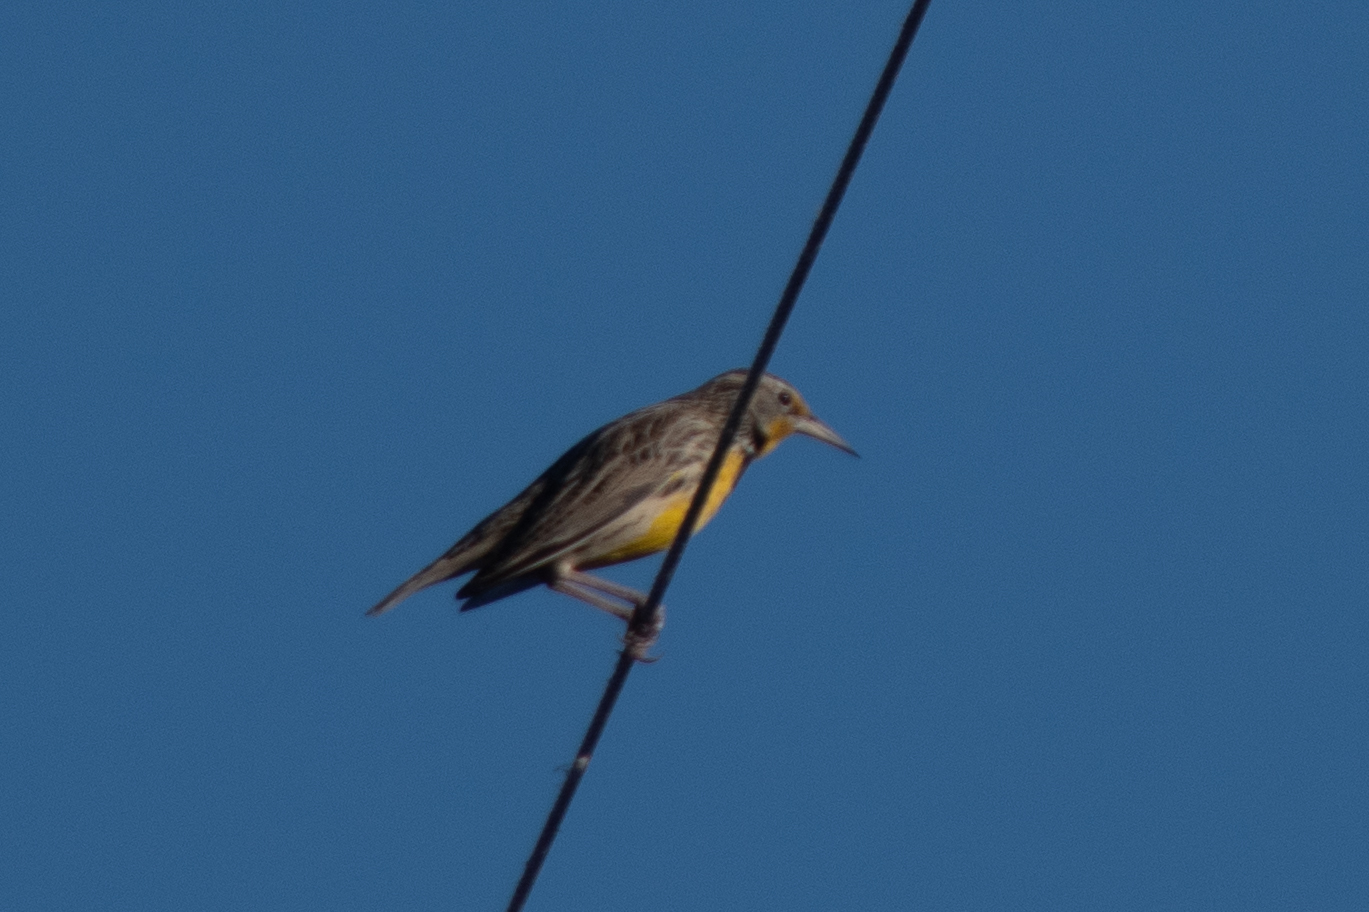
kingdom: Animalia
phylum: Chordata
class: Aves
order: Passeriformes
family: Icteridae
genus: Sturnella
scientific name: Sturnella neglecta
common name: Western meadowlark
